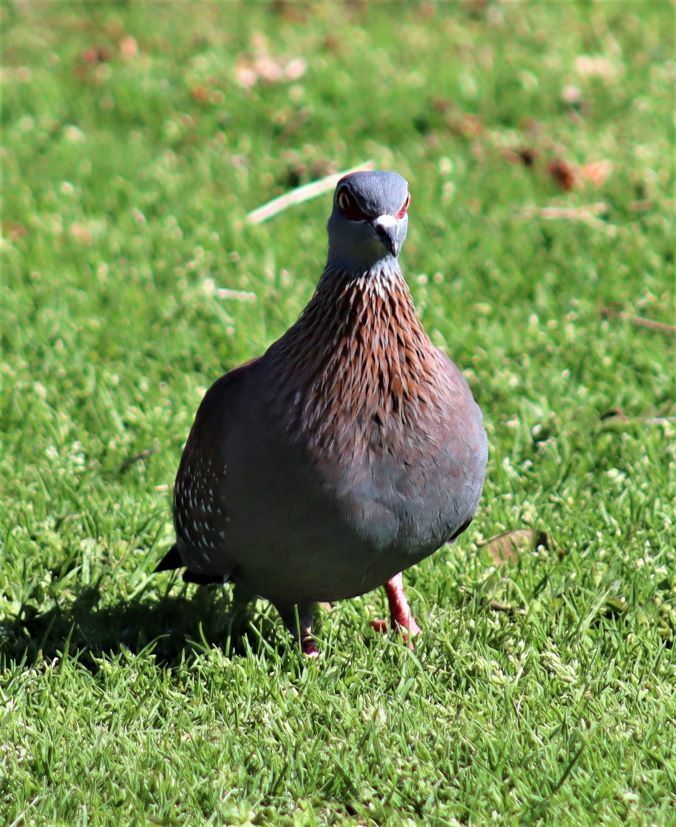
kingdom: Animalia
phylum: Chordata
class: Aves
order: Columbiformes
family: Columbidae
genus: Columba
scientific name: Columba guinea
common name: Speckled pigeon
